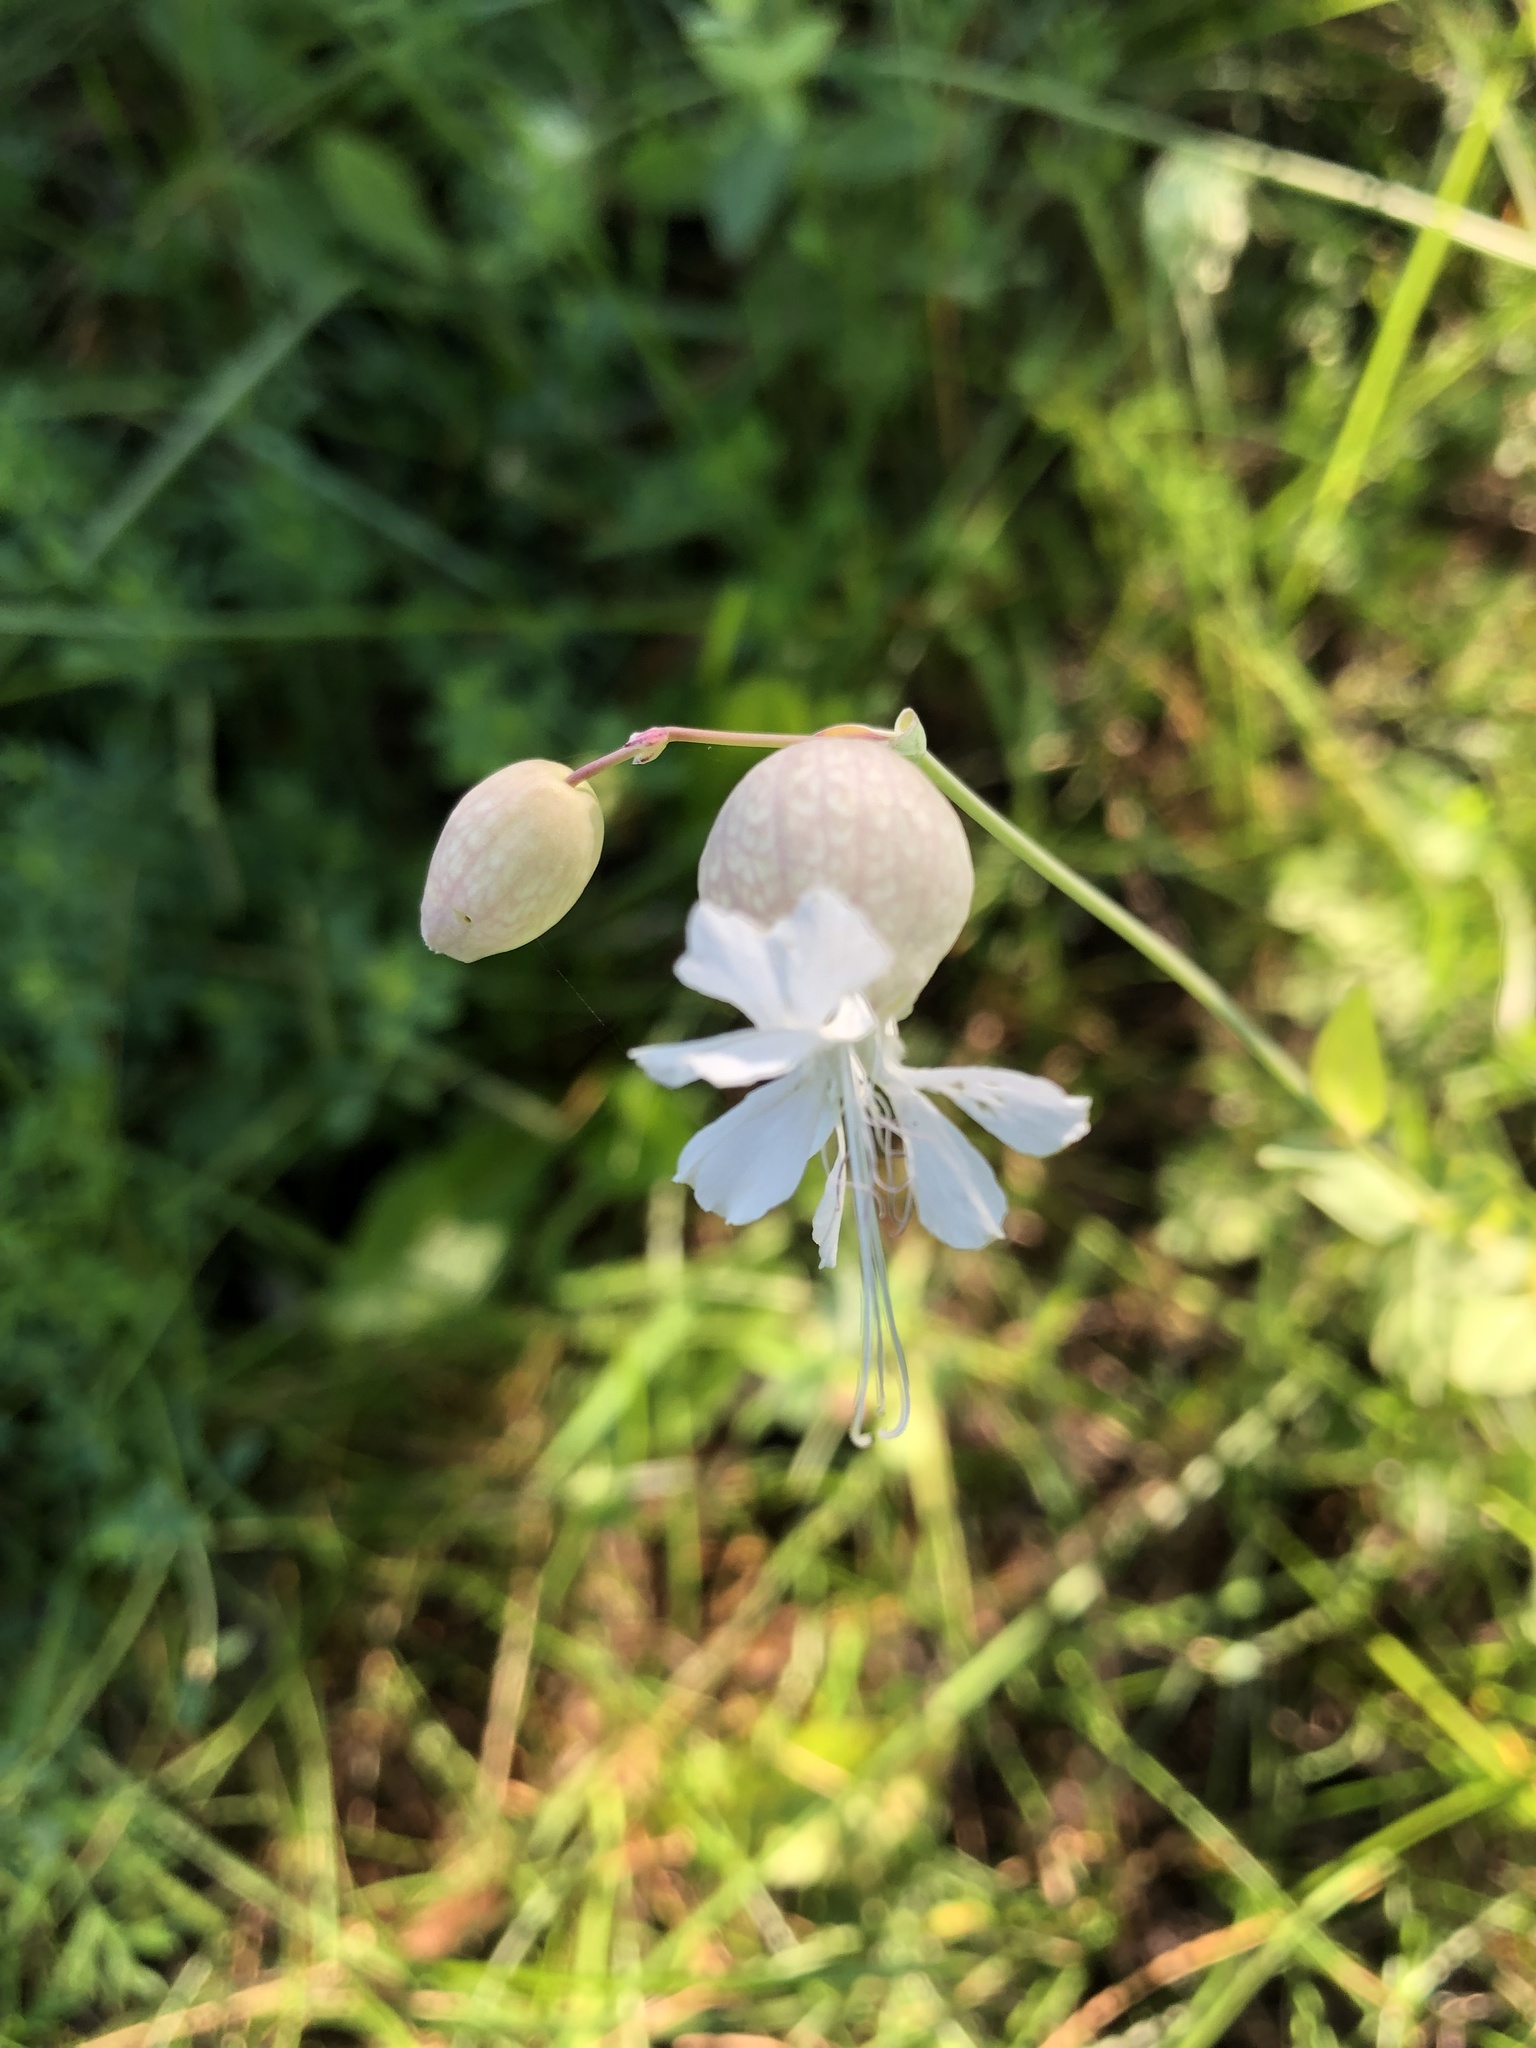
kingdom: Plantae
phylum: Tracheophyta
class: Magnoliopsida
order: Caryophyllales
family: Caryophyllaceae
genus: Silene
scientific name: Silene vulgaris
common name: Bladder campion
